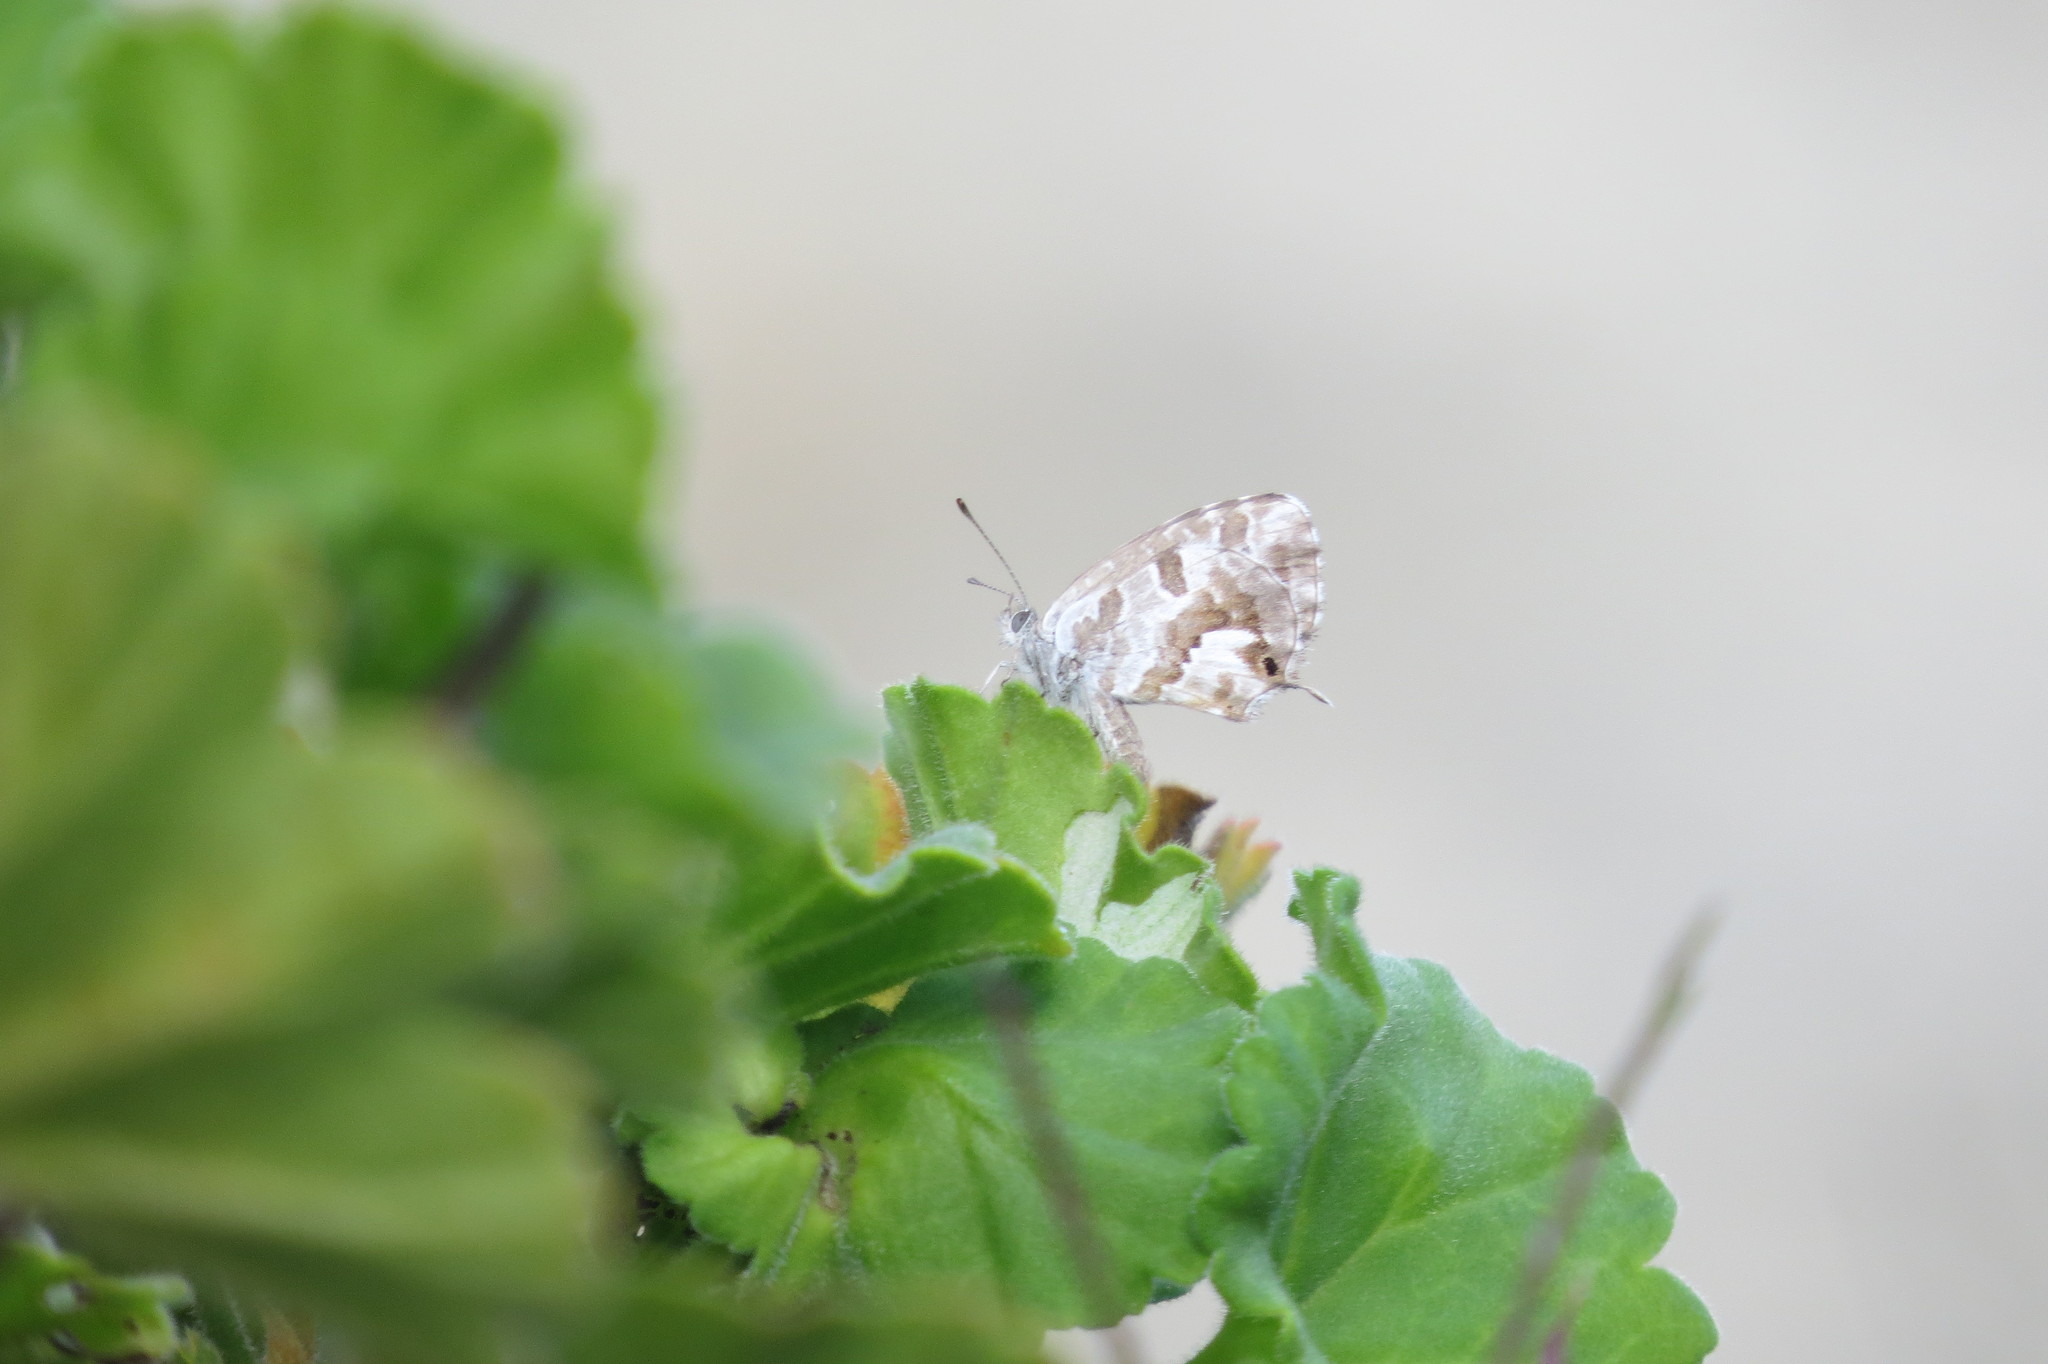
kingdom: Animalia
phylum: Arthropoda
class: Insecta
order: Lepidoptera
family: Lycaenidae
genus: Cacyreus
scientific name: Cacyreus marshalli
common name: Geranium bronze
